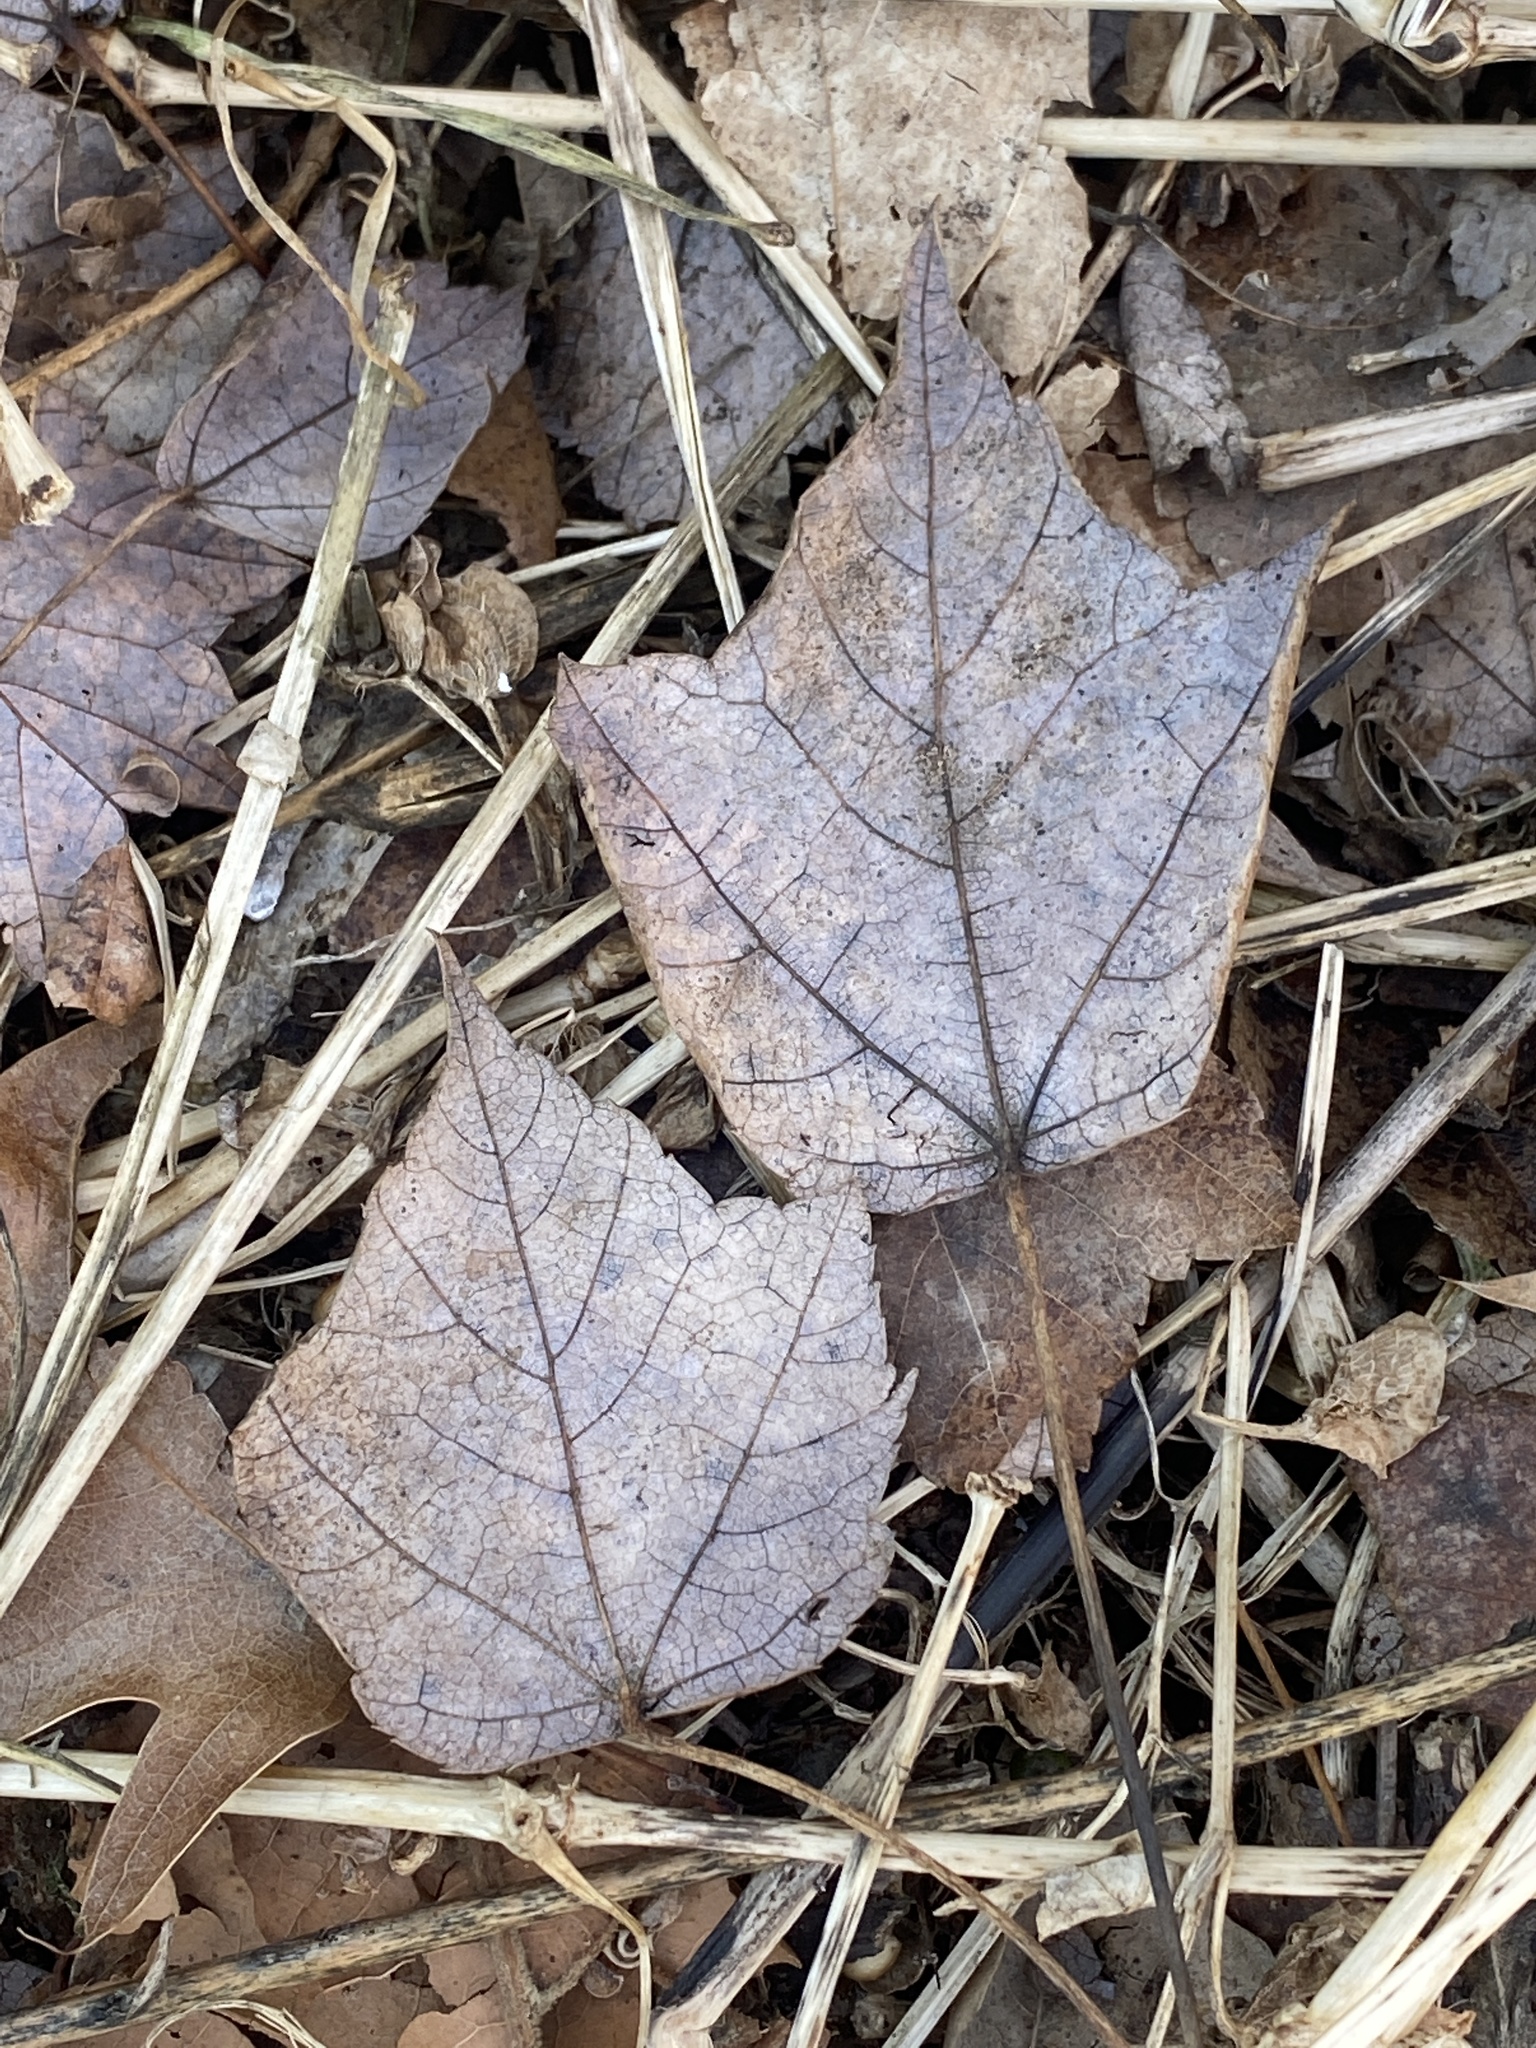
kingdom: Plantae
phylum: Tracheophyta
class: Magnoliopsida
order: Sapindales
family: Sapindaceae
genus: Acer
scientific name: Acer rubrum
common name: Red maple
